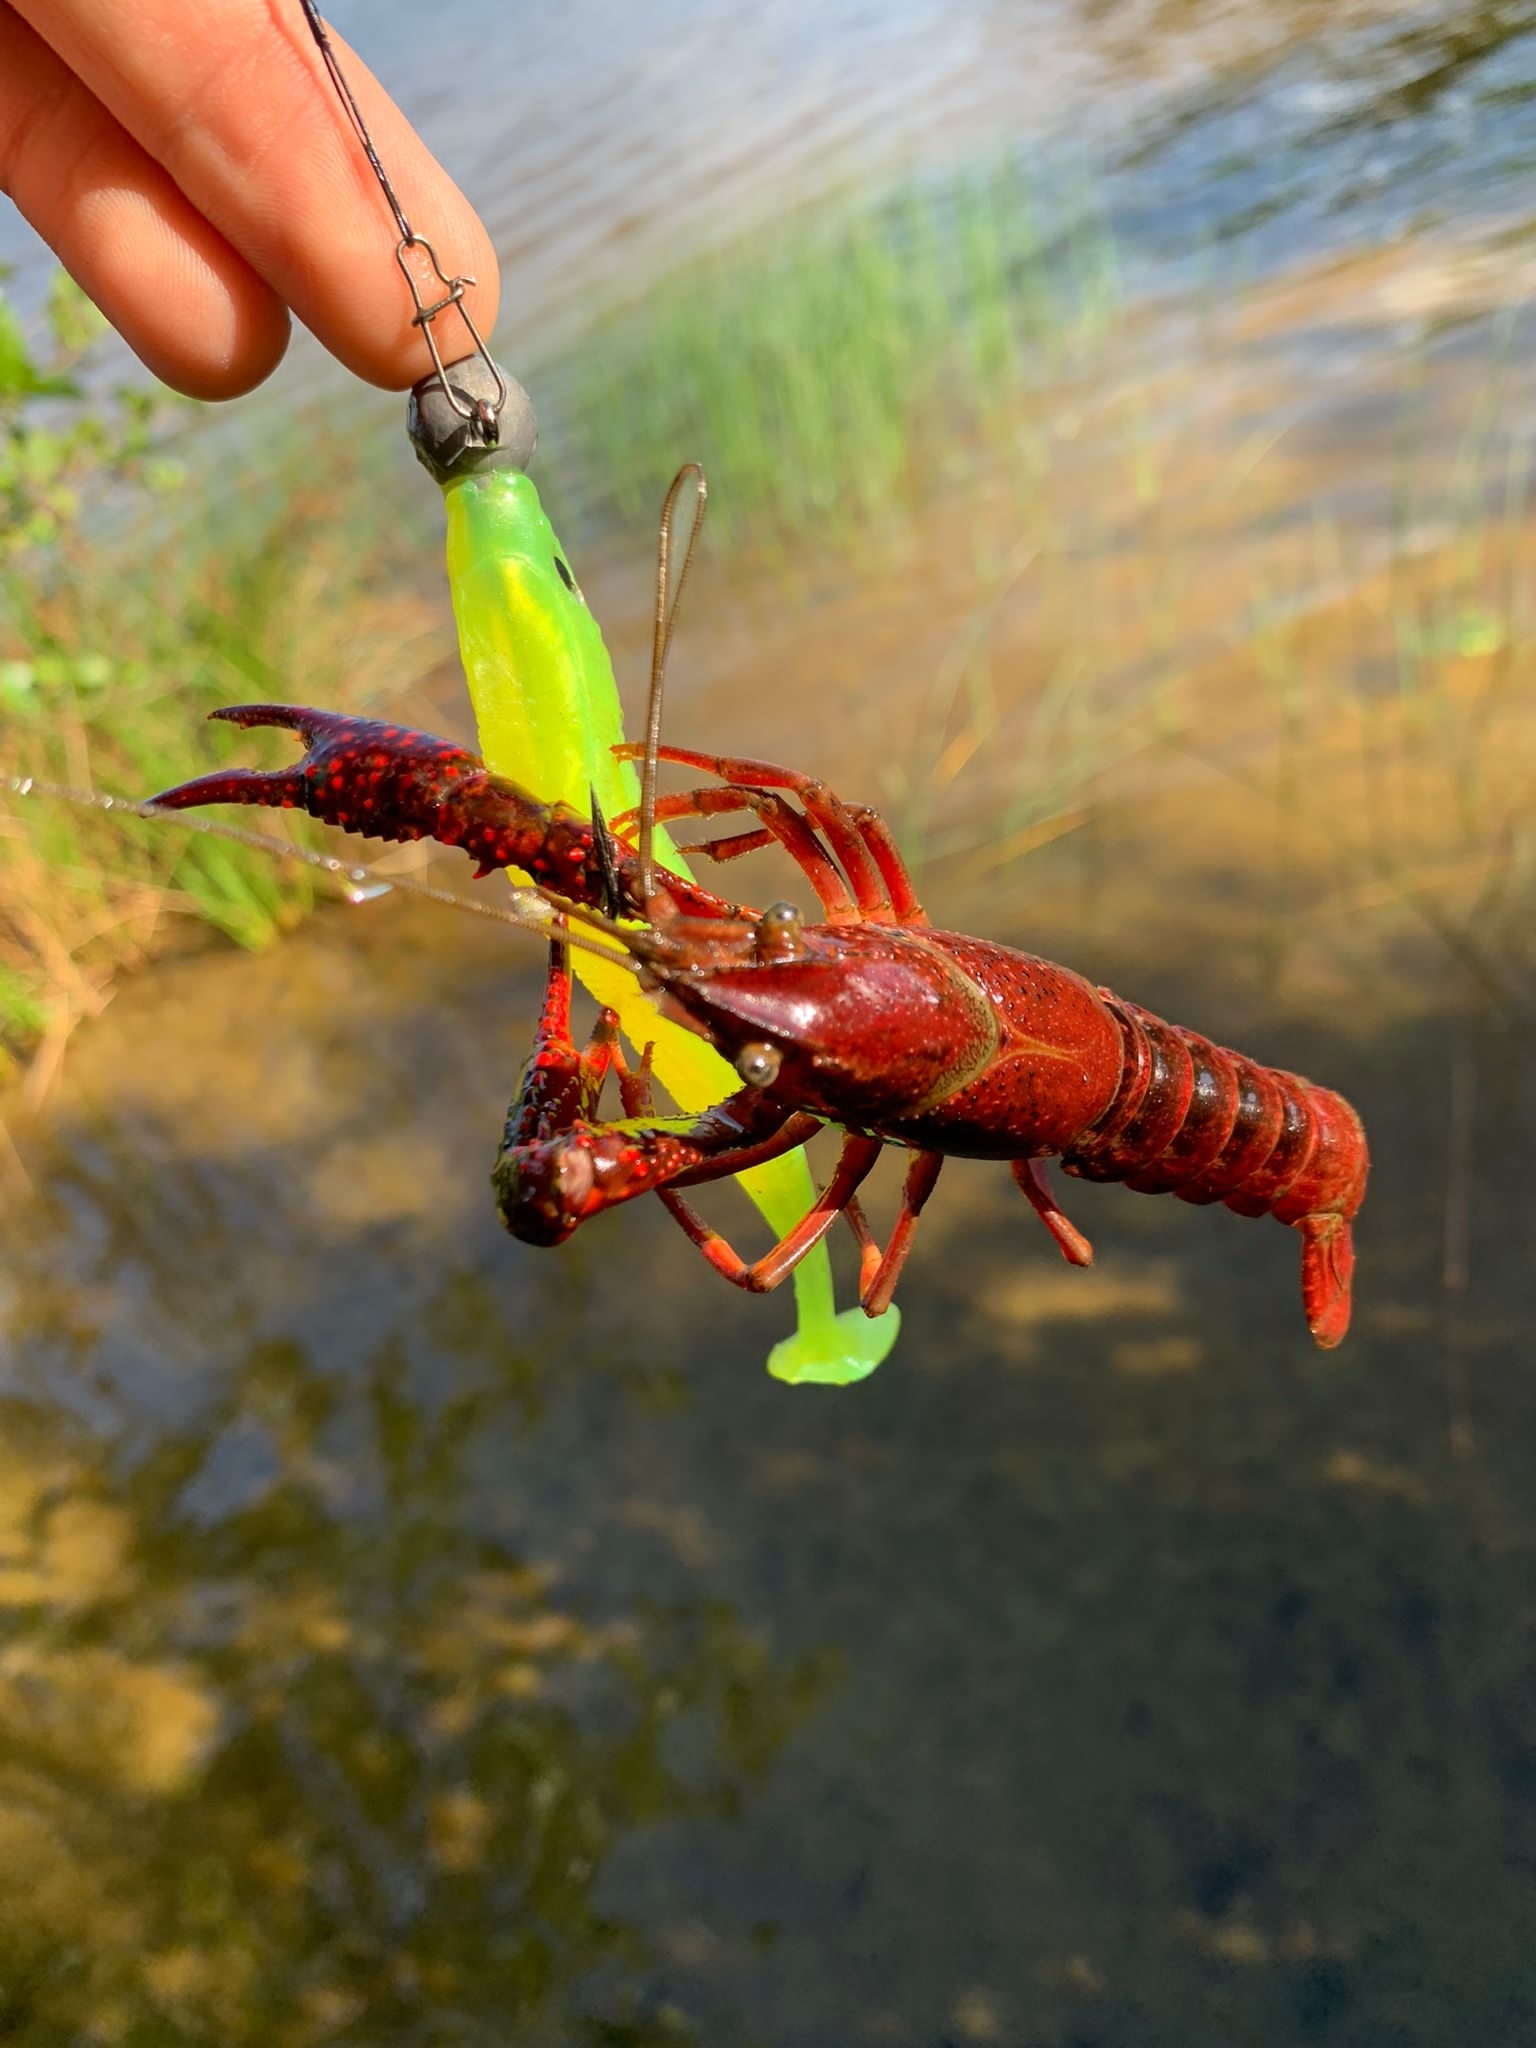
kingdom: Animalia
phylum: Arthropoda
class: Malacostraca
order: Decapoda
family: Cambaridae
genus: Procambarus
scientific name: Procambarus clarkii
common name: Red swamp crayfish
